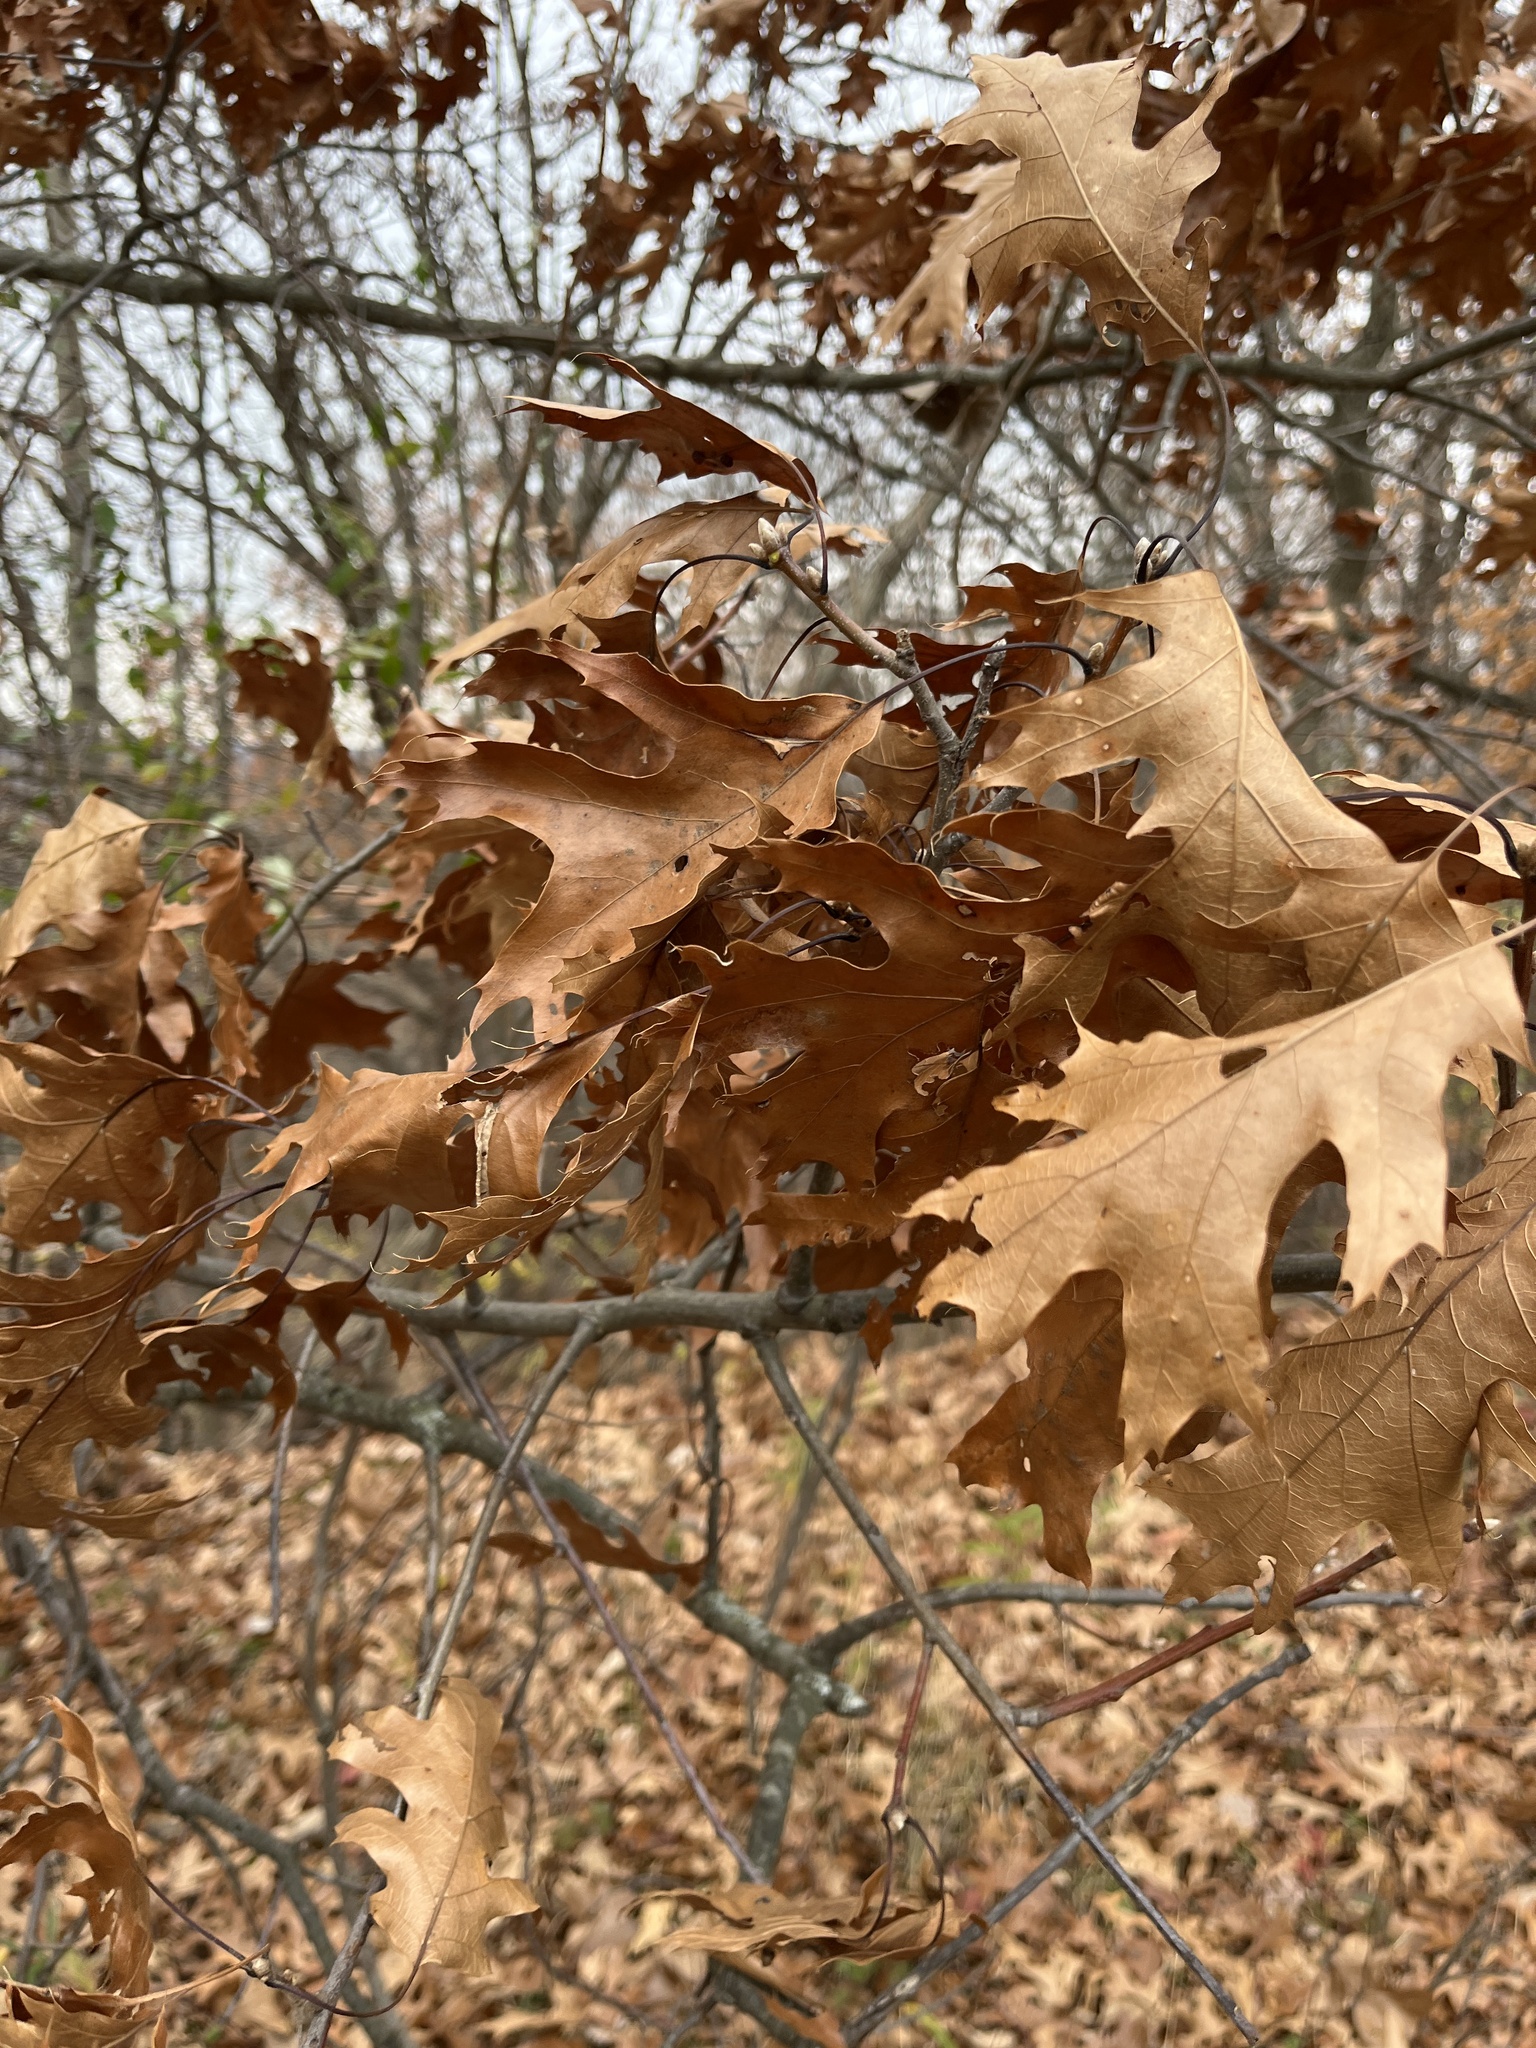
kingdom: Plantae
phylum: Tracheophyta
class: Magnoliopsida
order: Fagales
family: Fagaceae
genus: Quercus
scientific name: Quercus rubra
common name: Red oak
